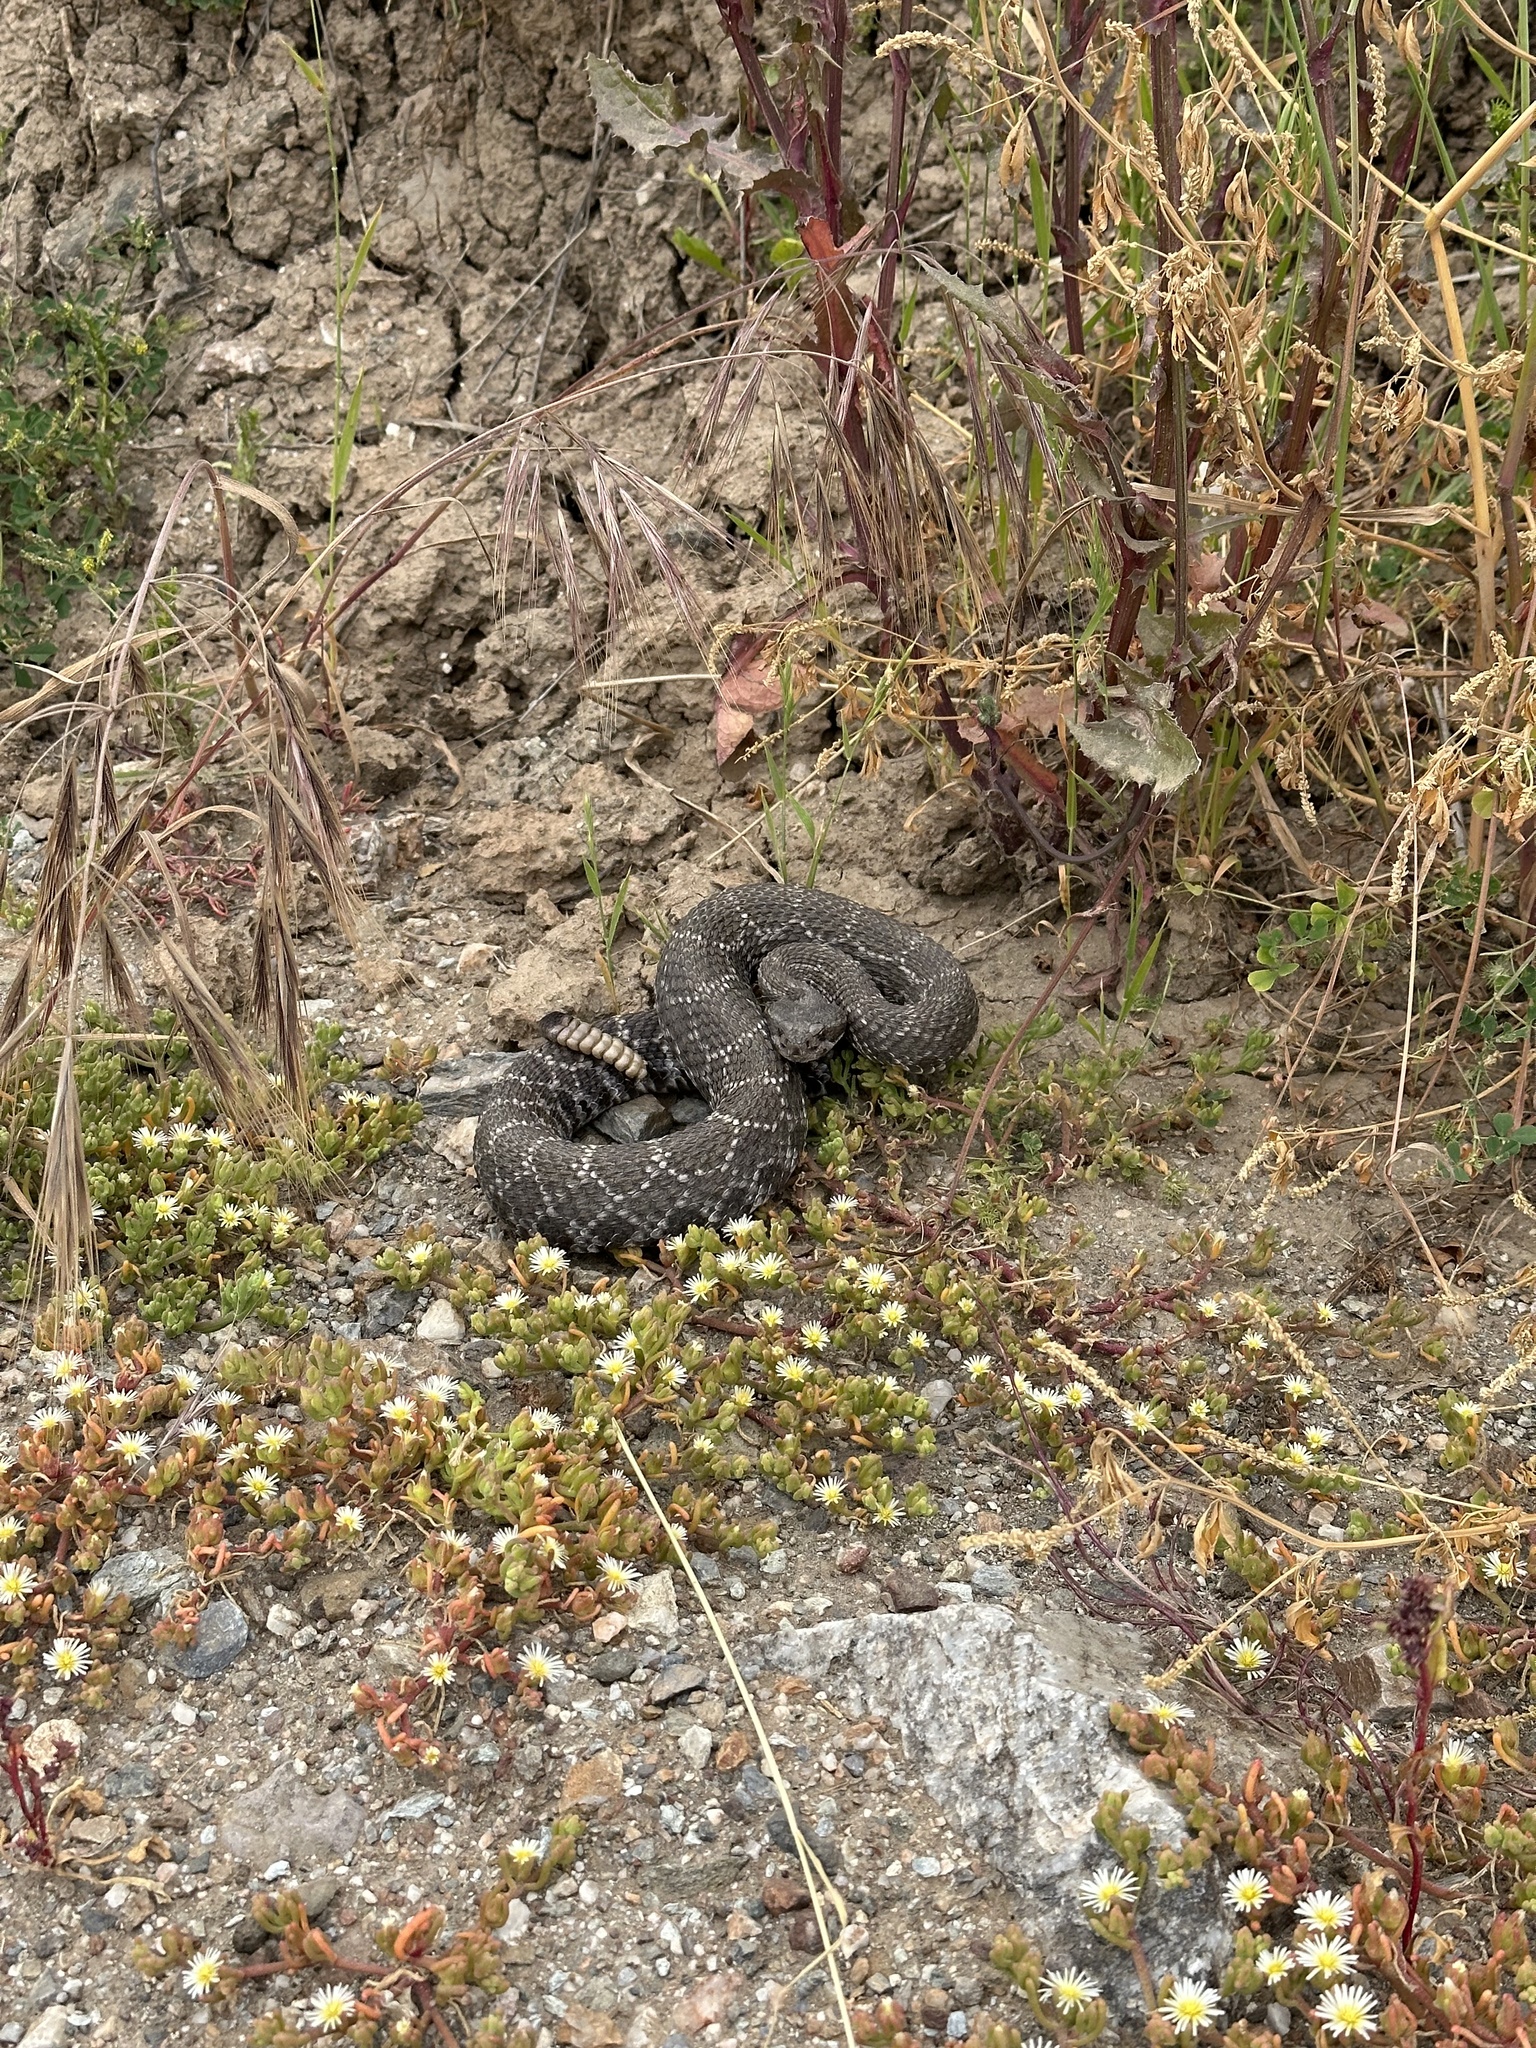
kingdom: Animalia
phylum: Chordata
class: Squamata
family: Viperidae
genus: Crotalus
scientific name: Crotalus oreganus
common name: Abyssus
